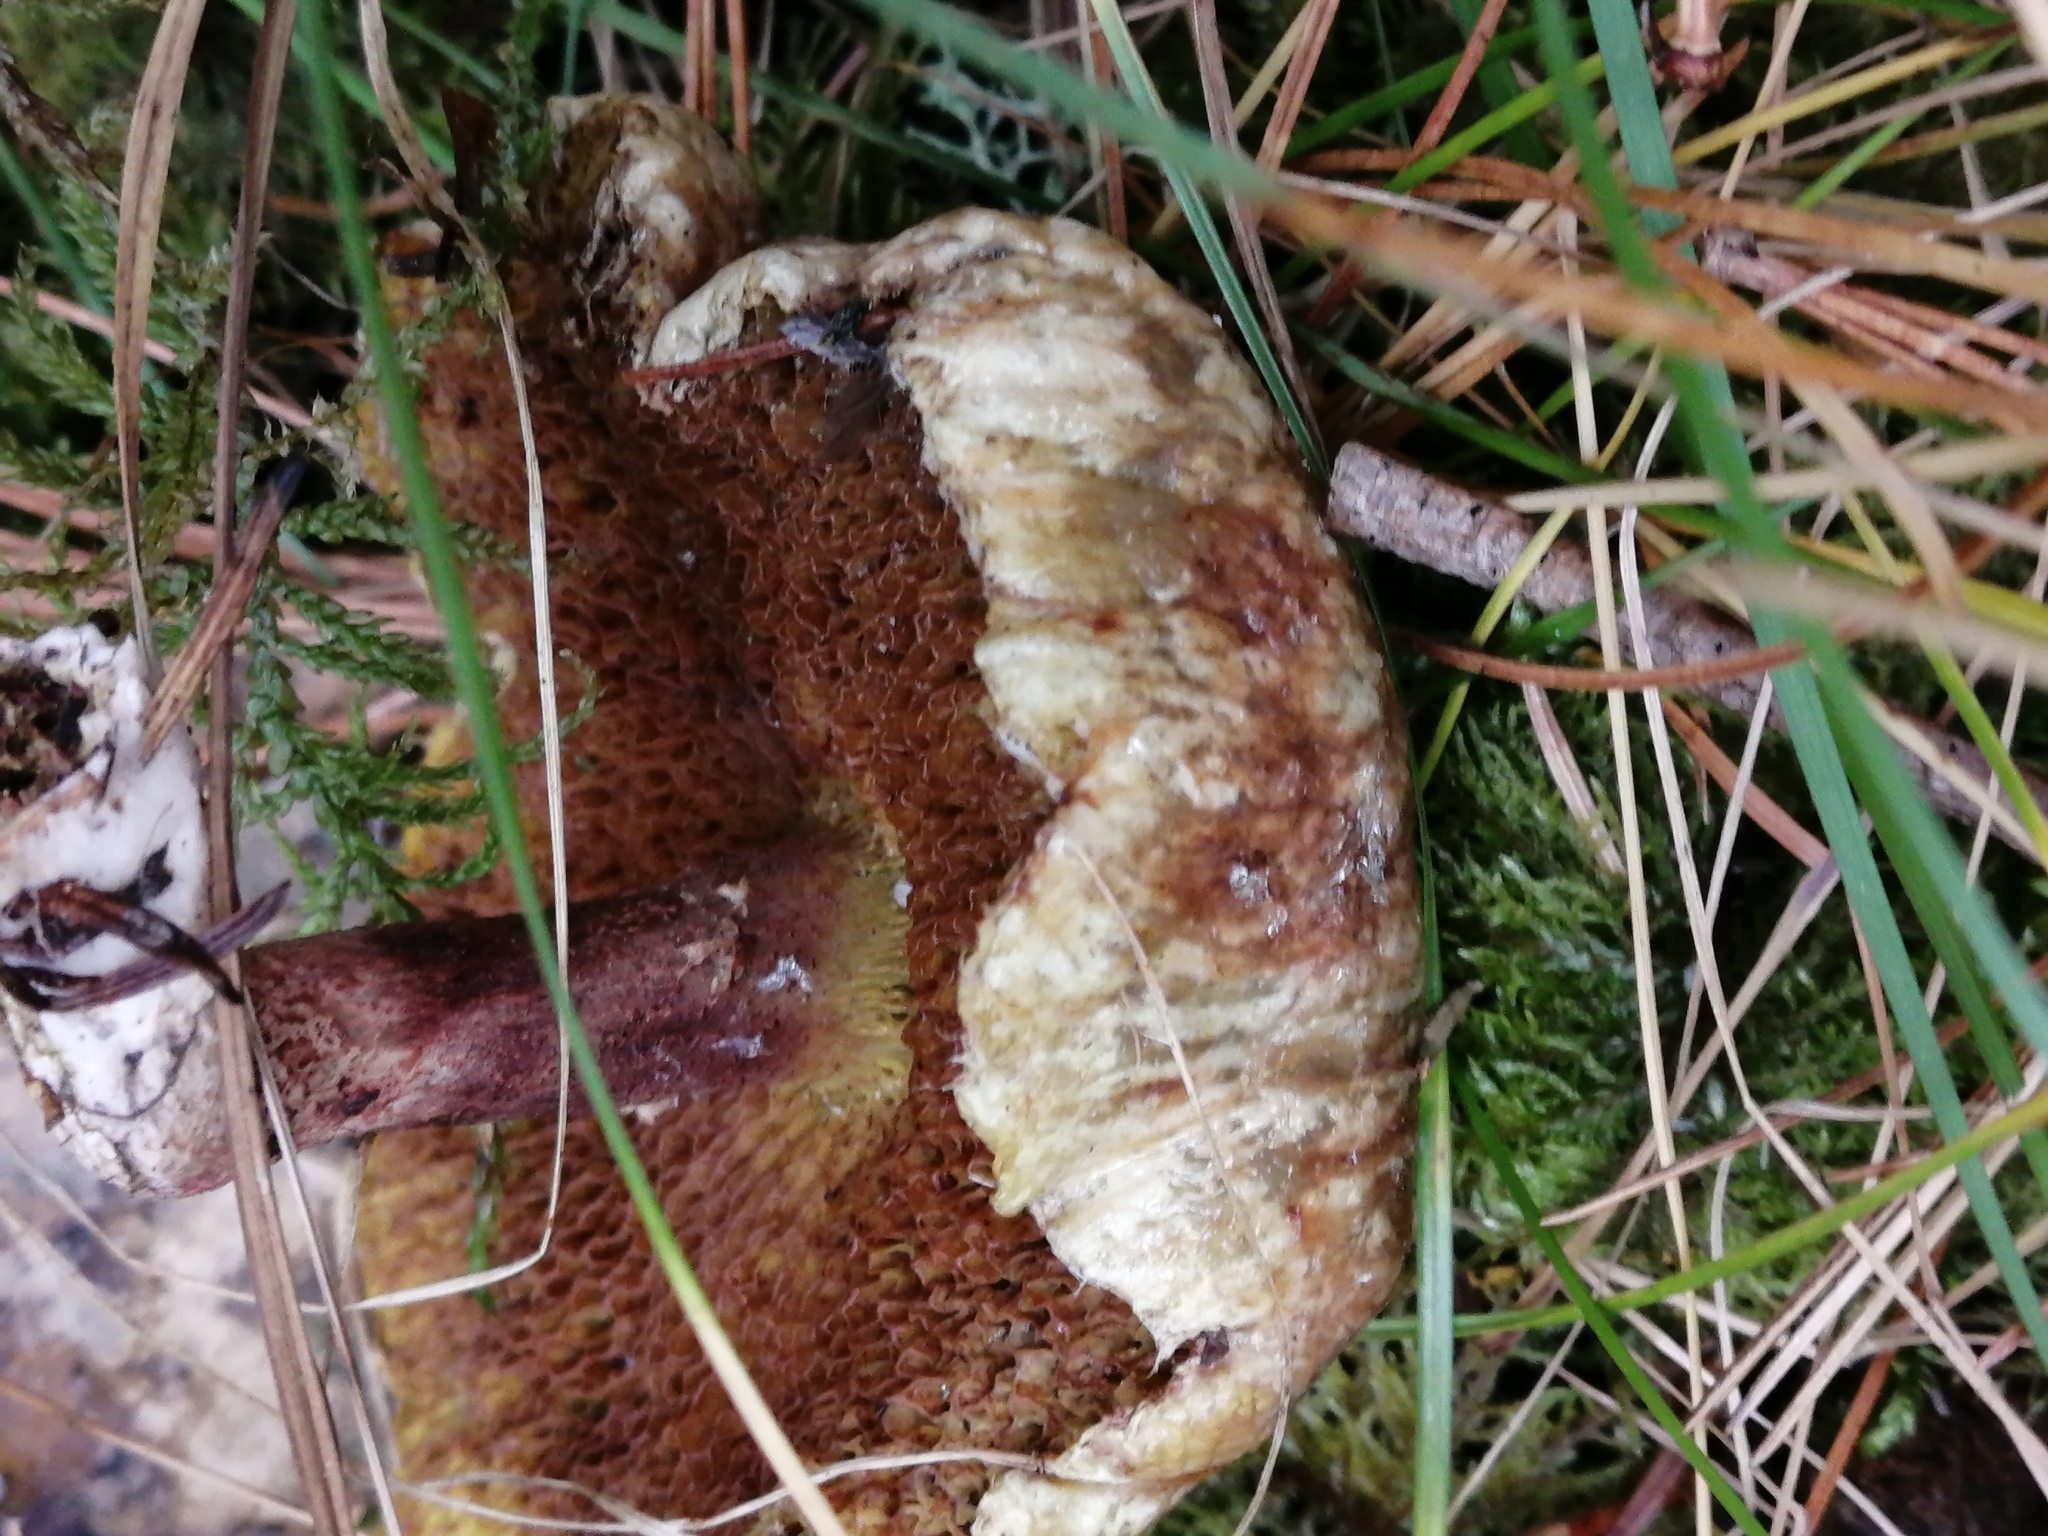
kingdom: Fungi
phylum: Basidiomycota
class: Agaricomycetes
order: Boletales
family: Suillaceae
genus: Suillus
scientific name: Suillus americanus
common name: Chicken fat mushroom
